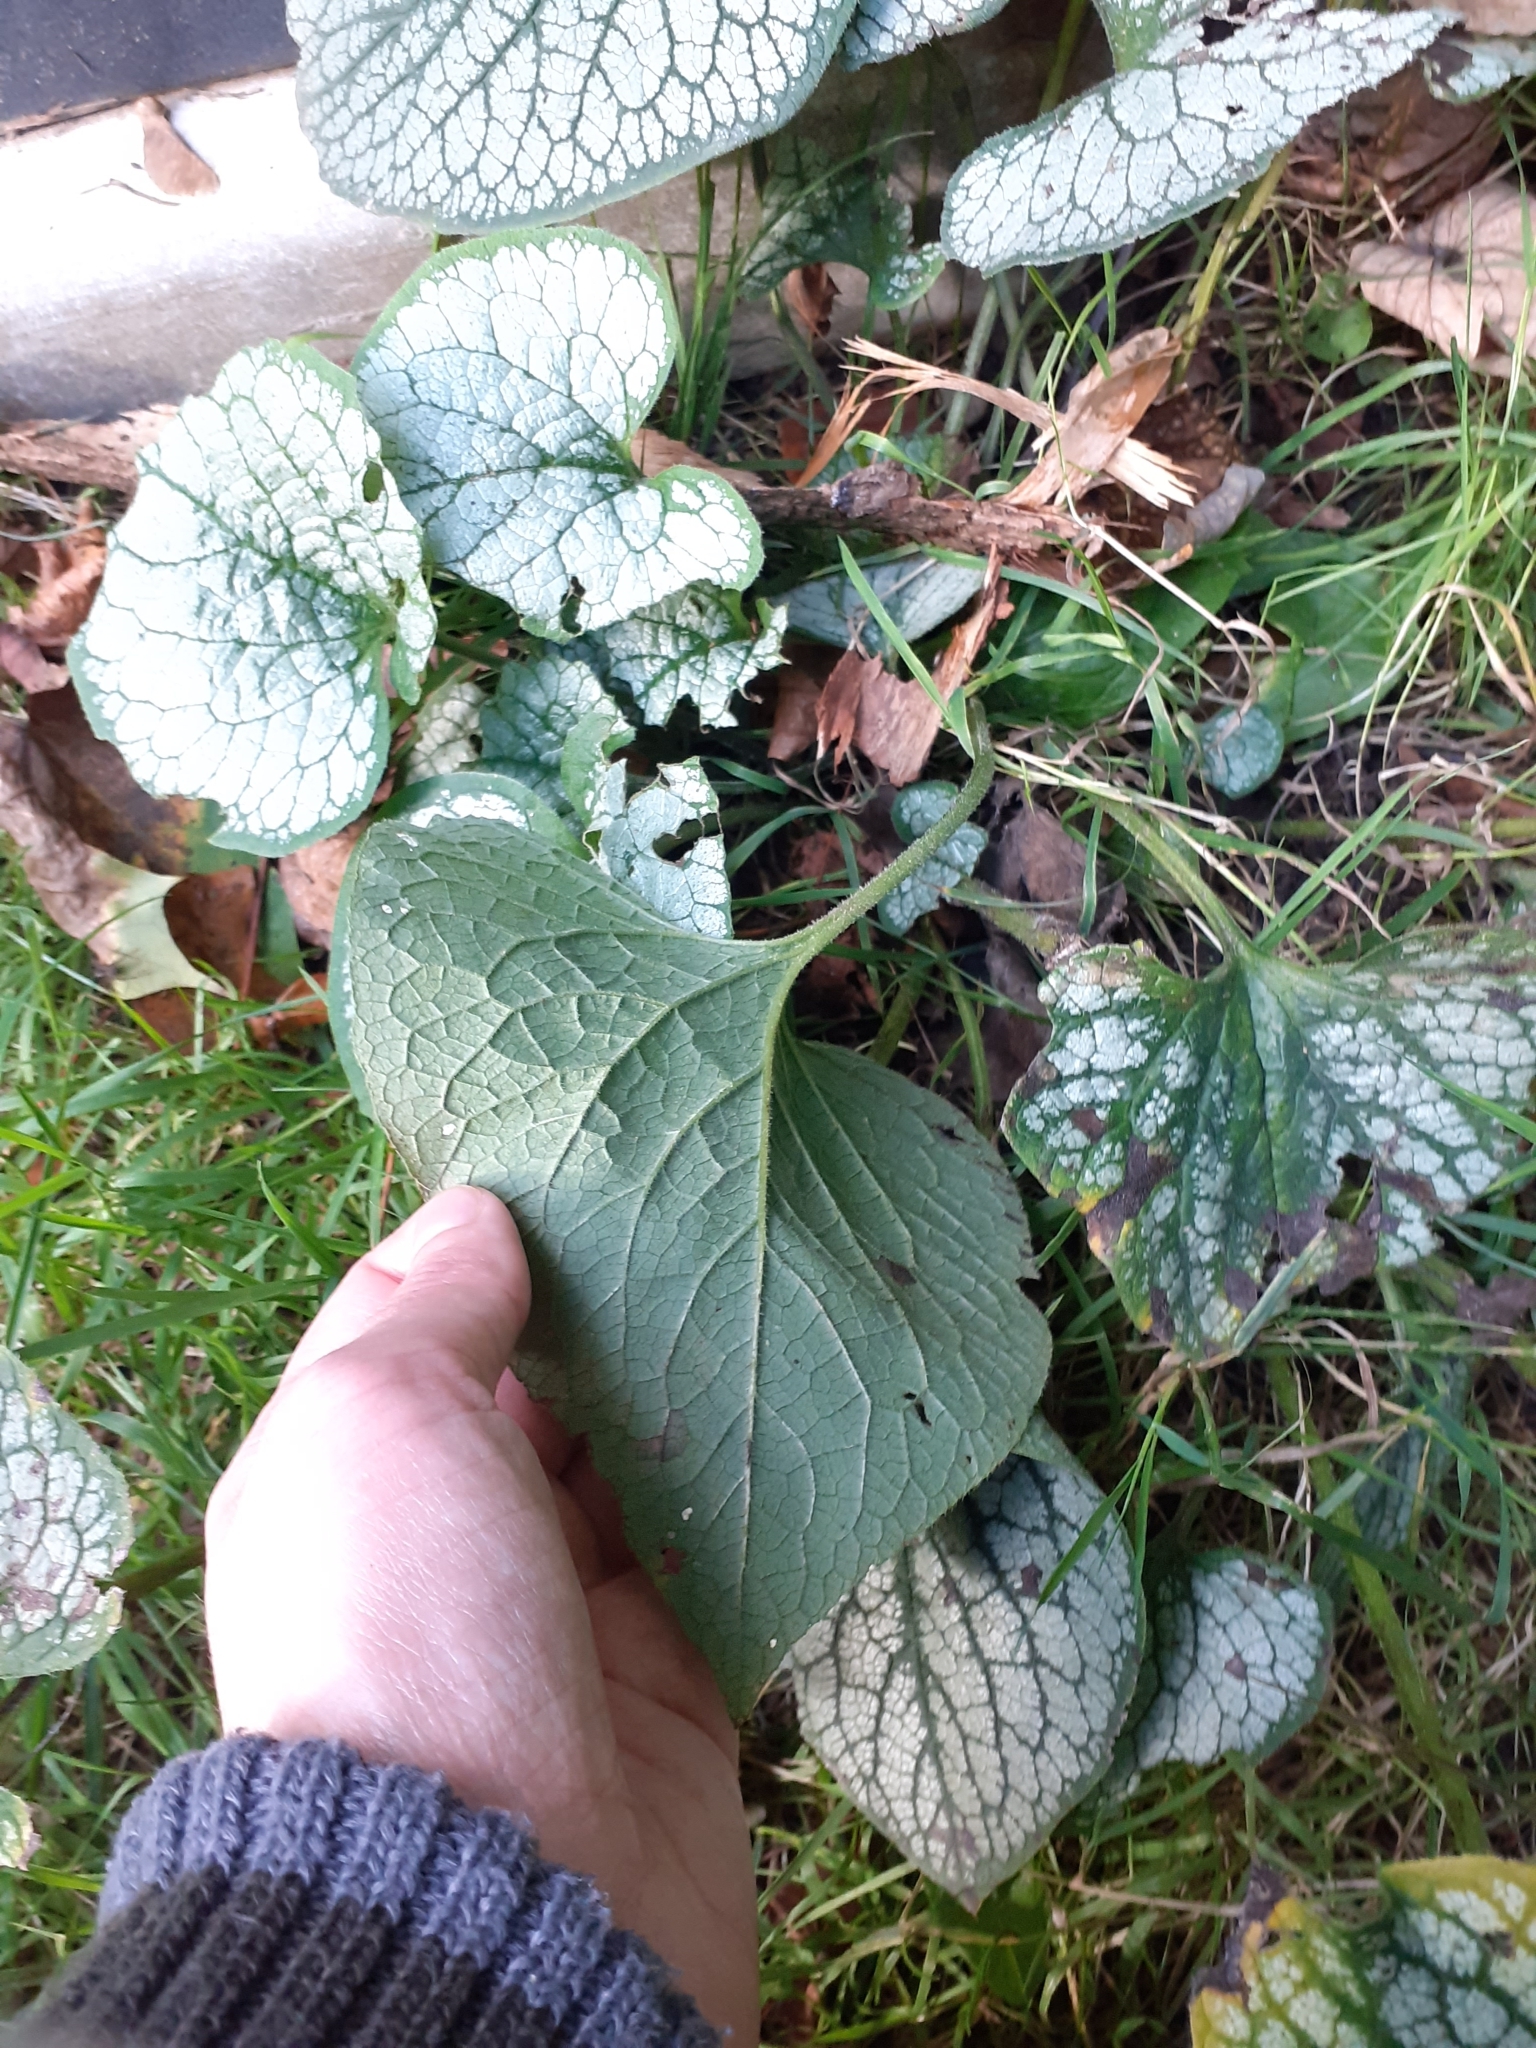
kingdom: Plantae
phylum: Tracheophyta
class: Magnoliopsida
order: Boraginales
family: Boraginaceae
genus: Brunnera
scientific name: Brunnera macrophylla
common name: Great forget-me-not
